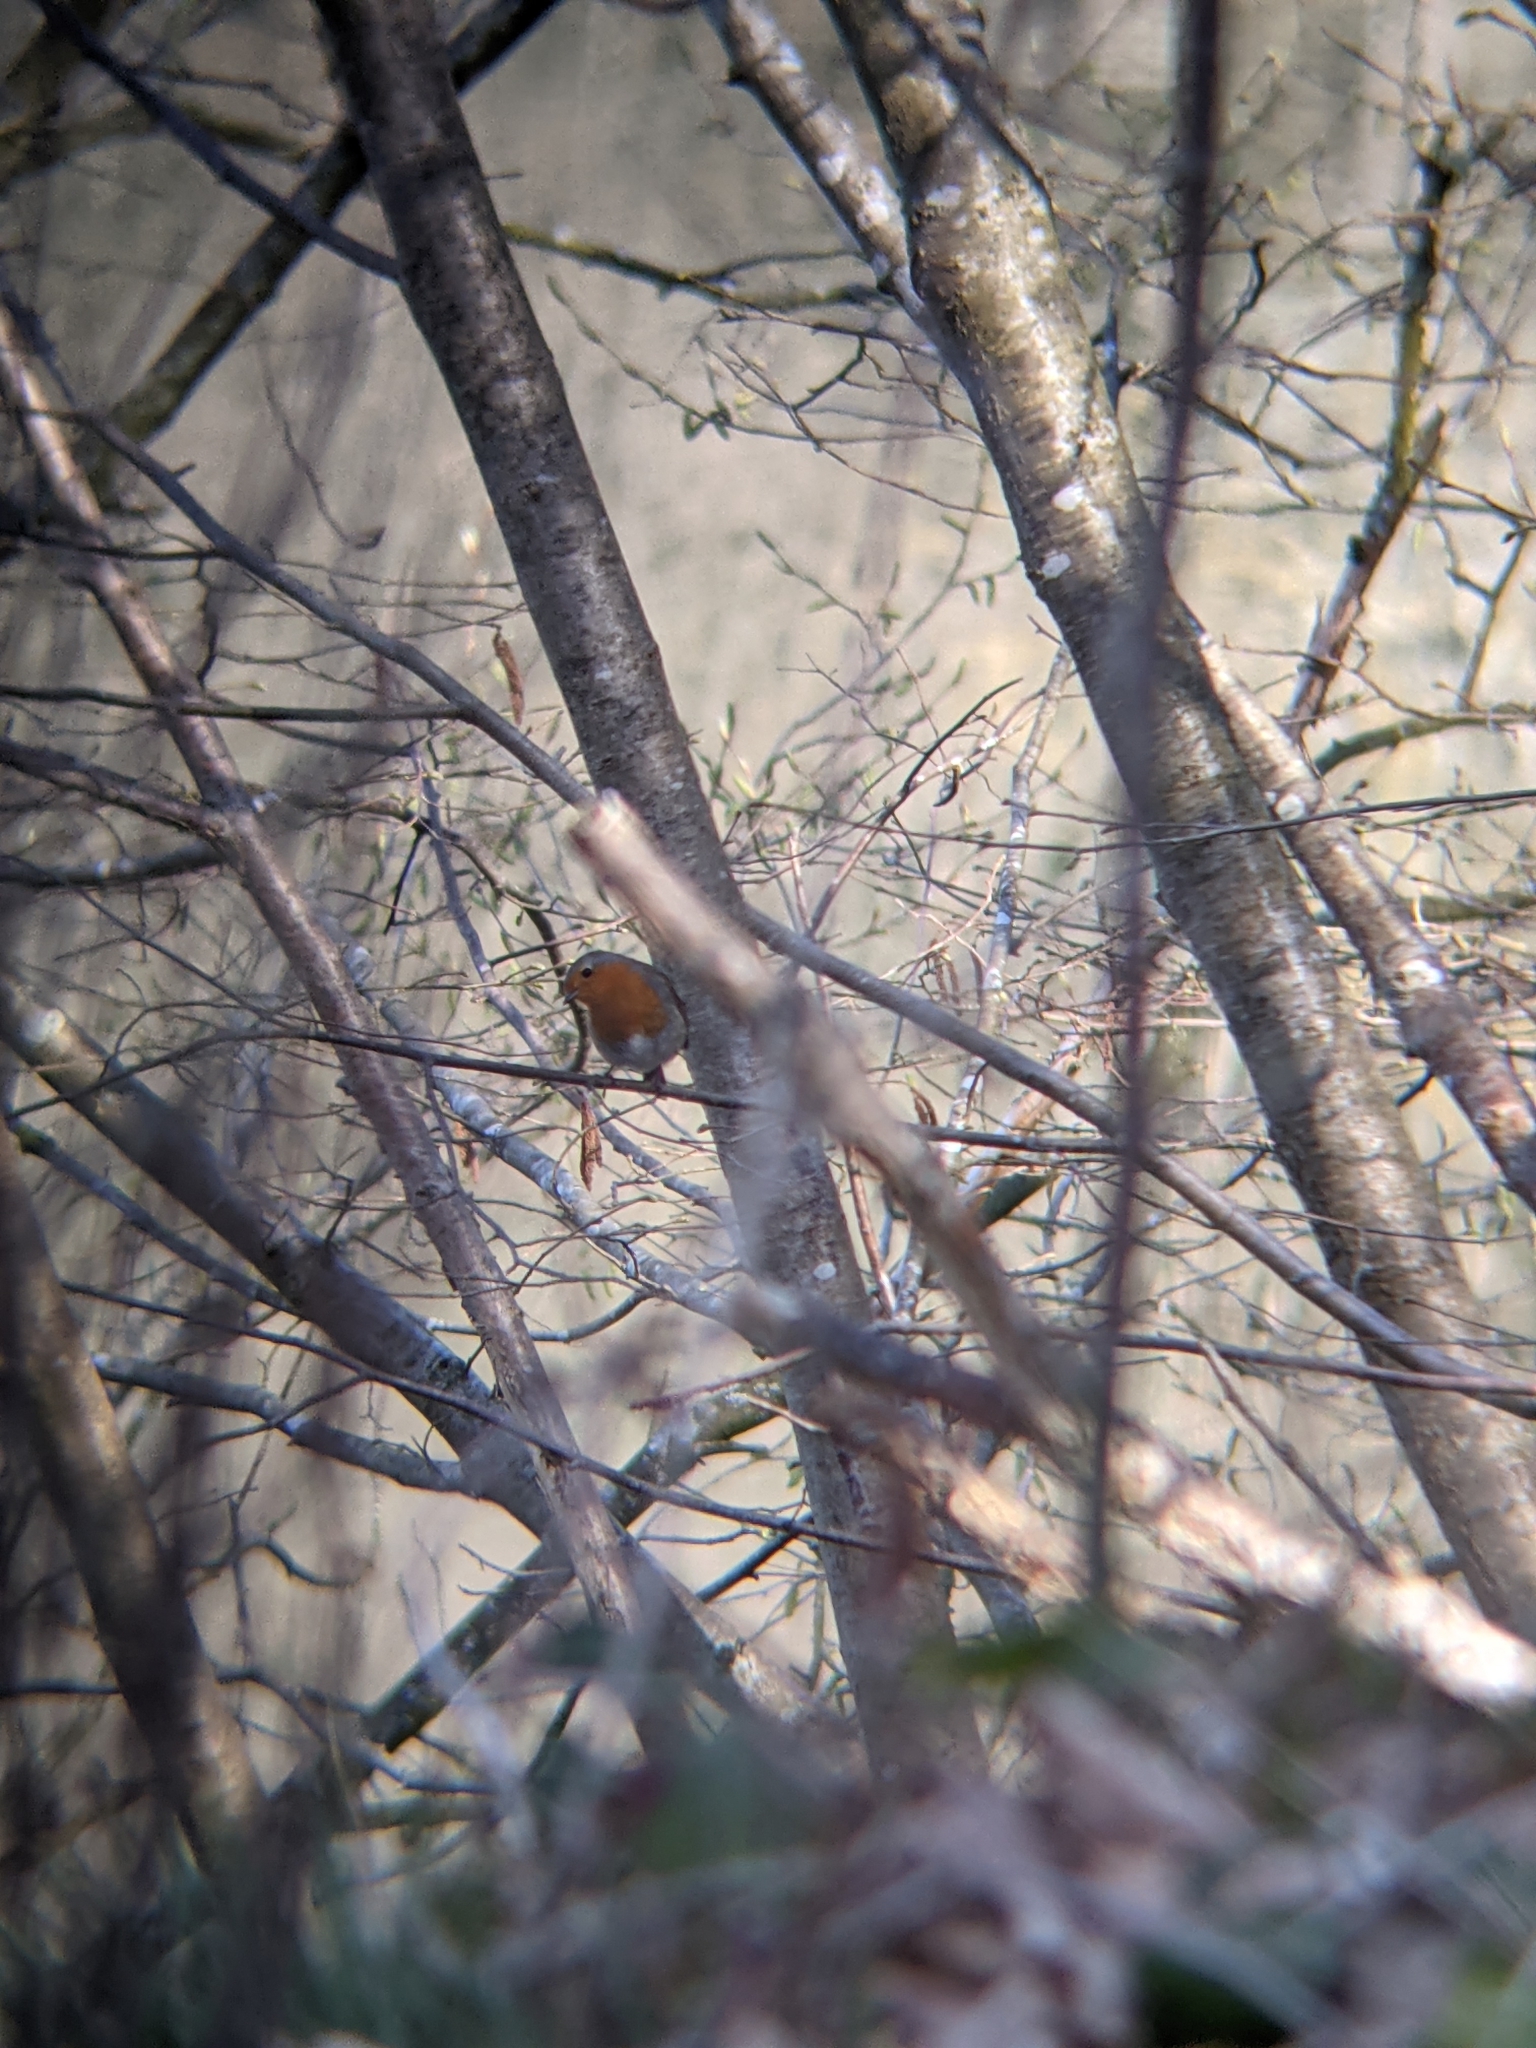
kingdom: Animalia
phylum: Chordata
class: Aves
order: Passeriformes
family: Muscicapidae
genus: Erithacus
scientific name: Erithacus rubecula
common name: European robin
